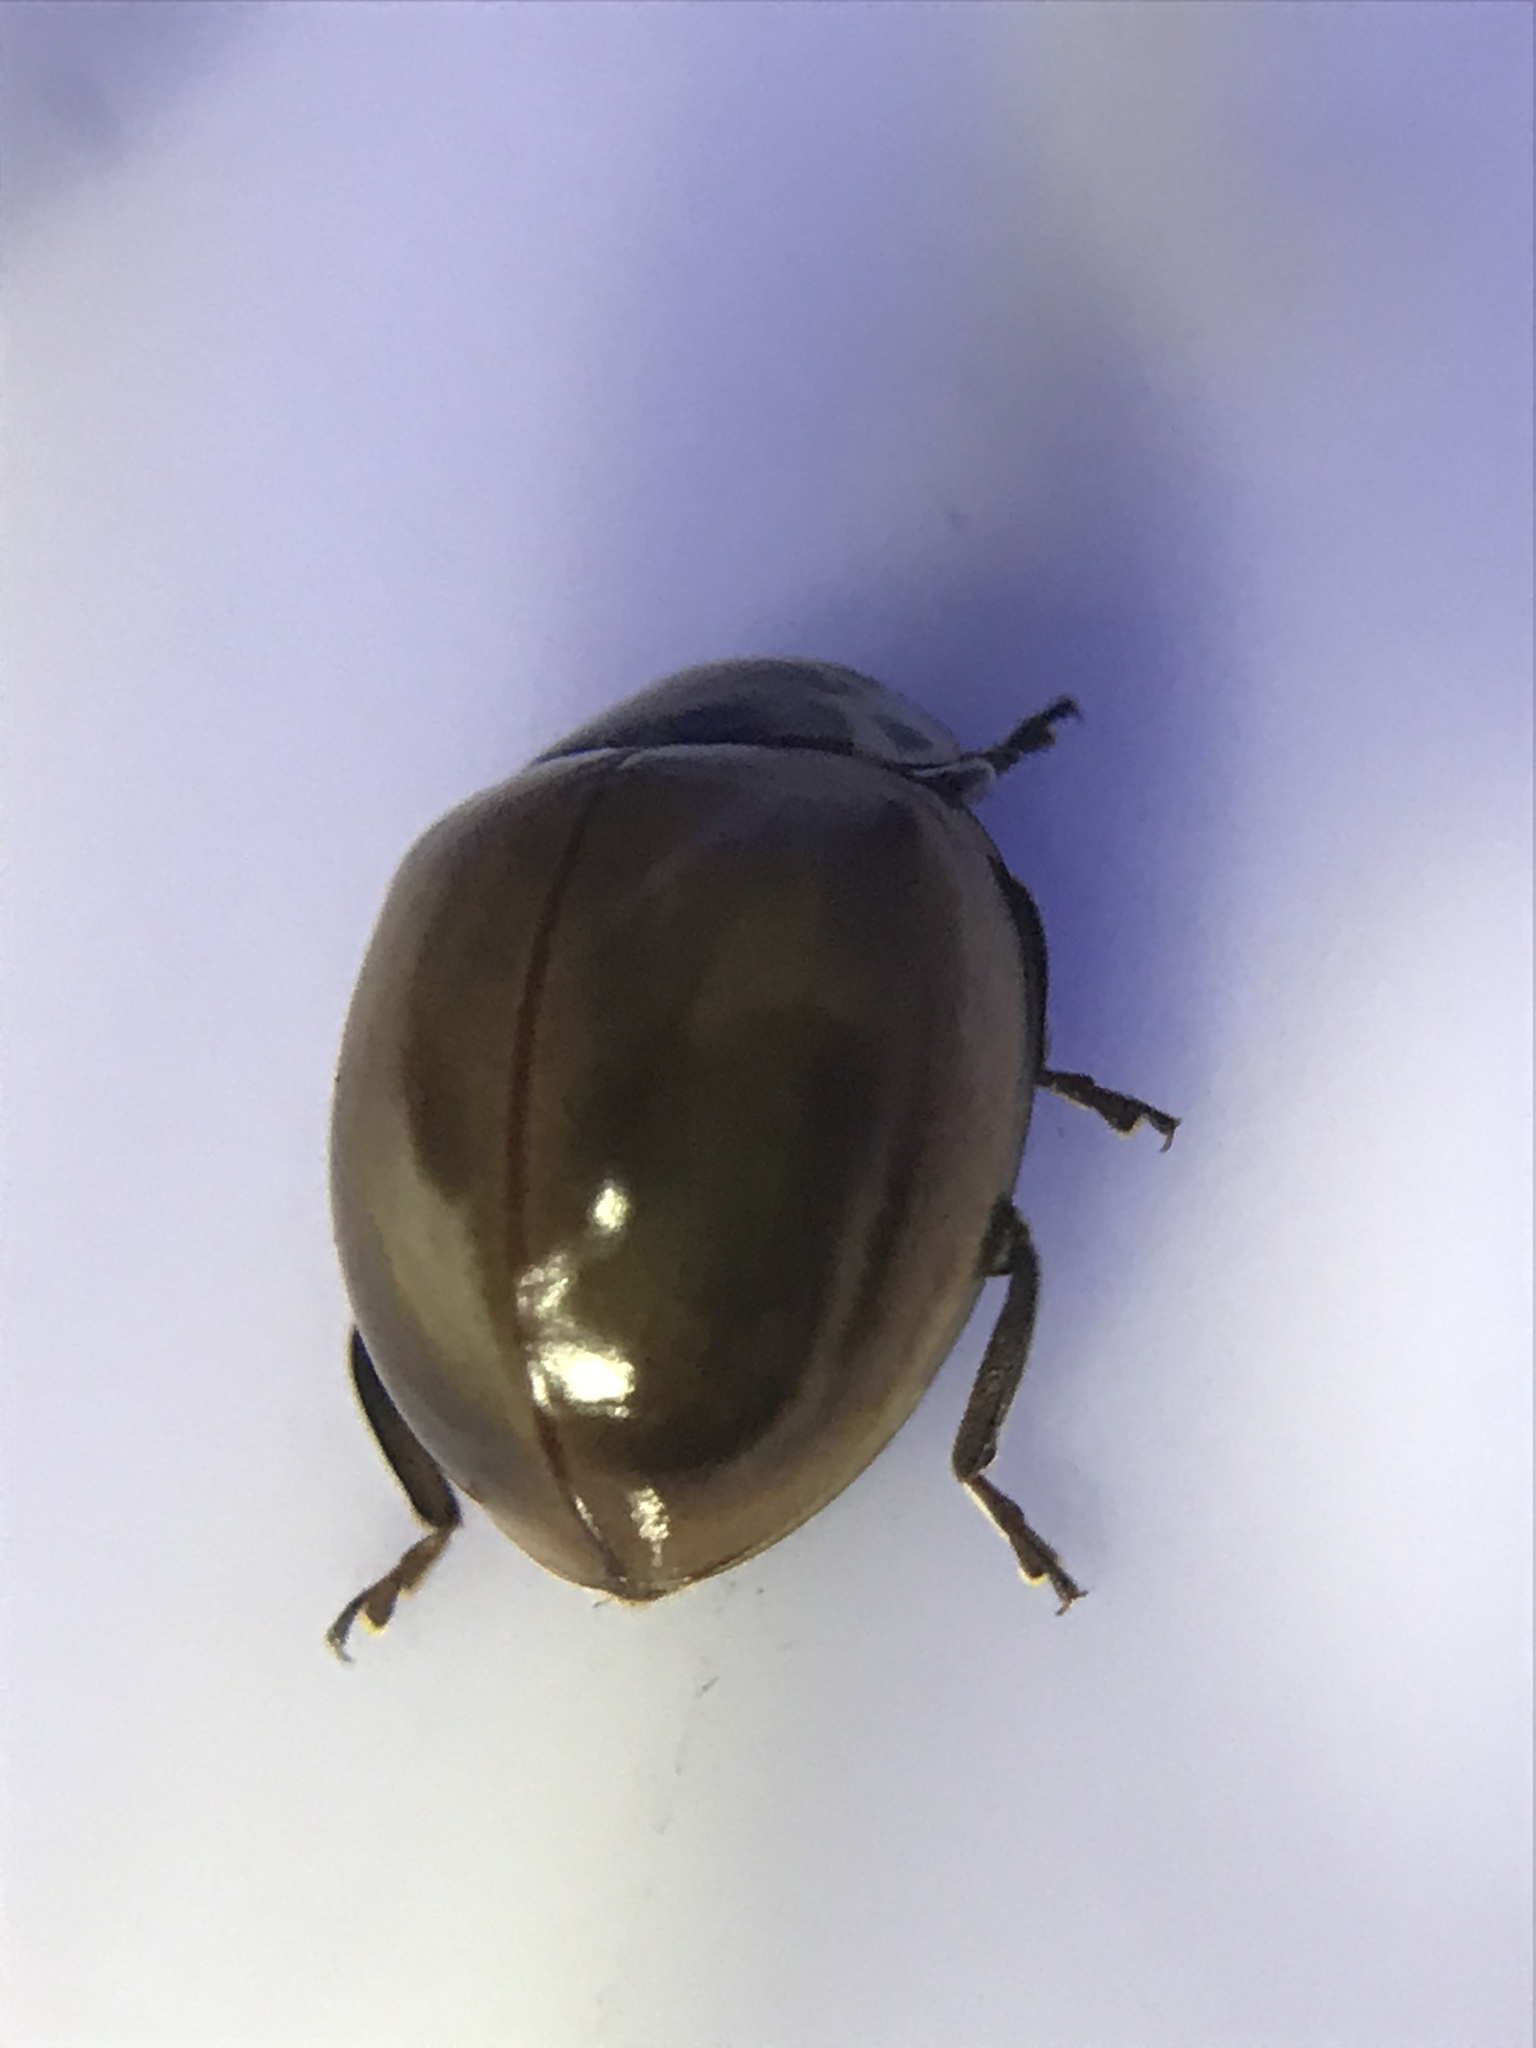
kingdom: Animalia
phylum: Arthropoda
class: Insecta
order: Coleoptera
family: Coccinellidae
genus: Myzia
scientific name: Myzia pullata
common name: Streaked lady beetle
